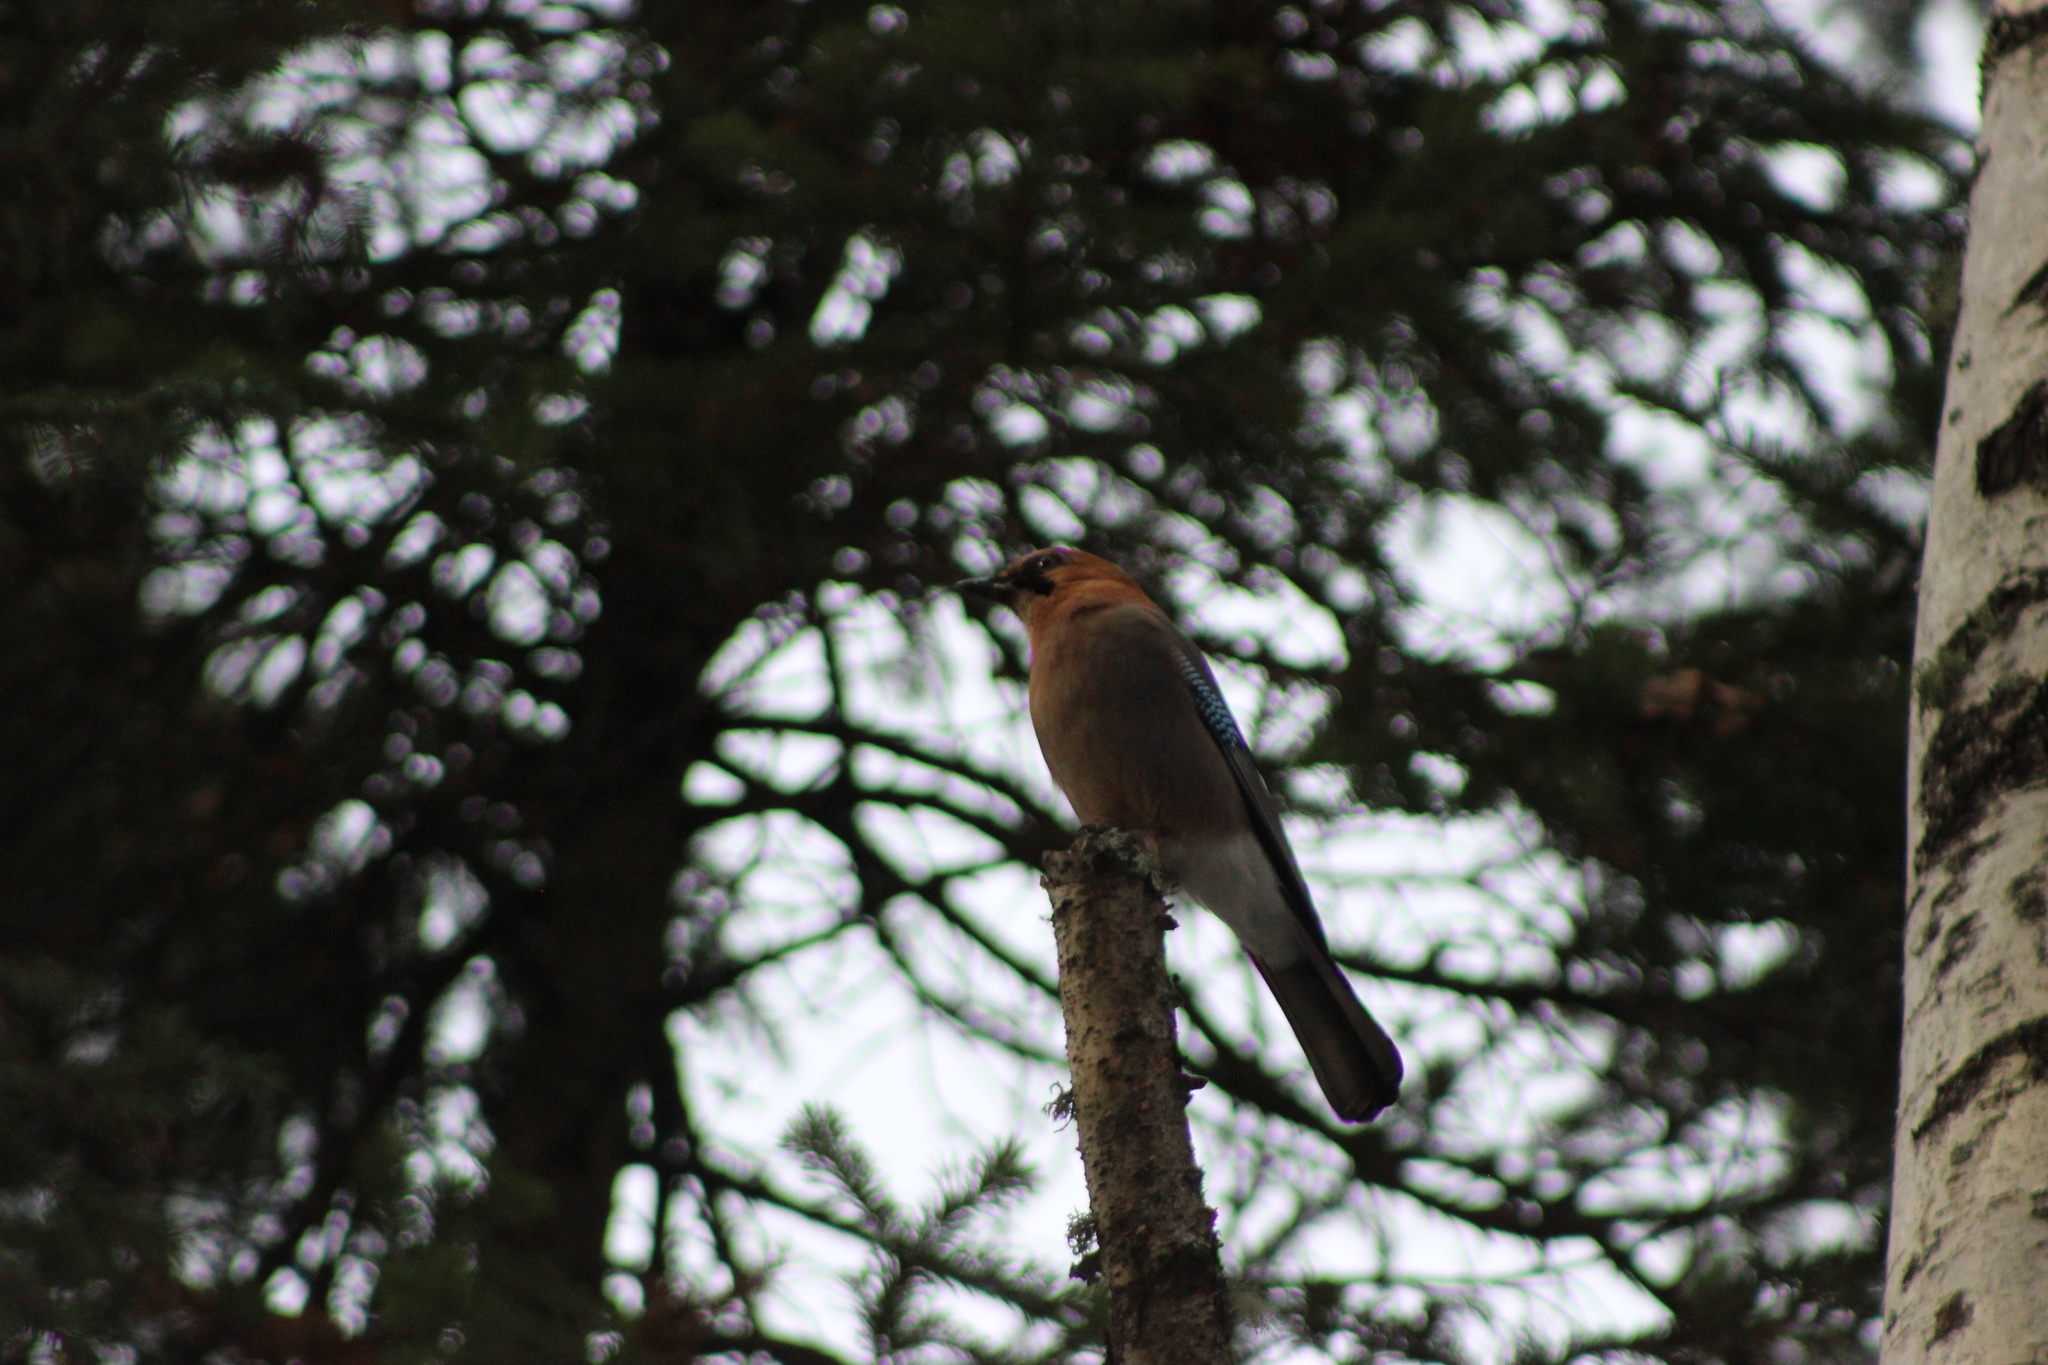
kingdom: Animalia
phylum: Chordata
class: Aves
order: Passeriformes
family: Corvidae
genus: Garrulus
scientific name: Garrulus glandarius
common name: Eurasian jay
